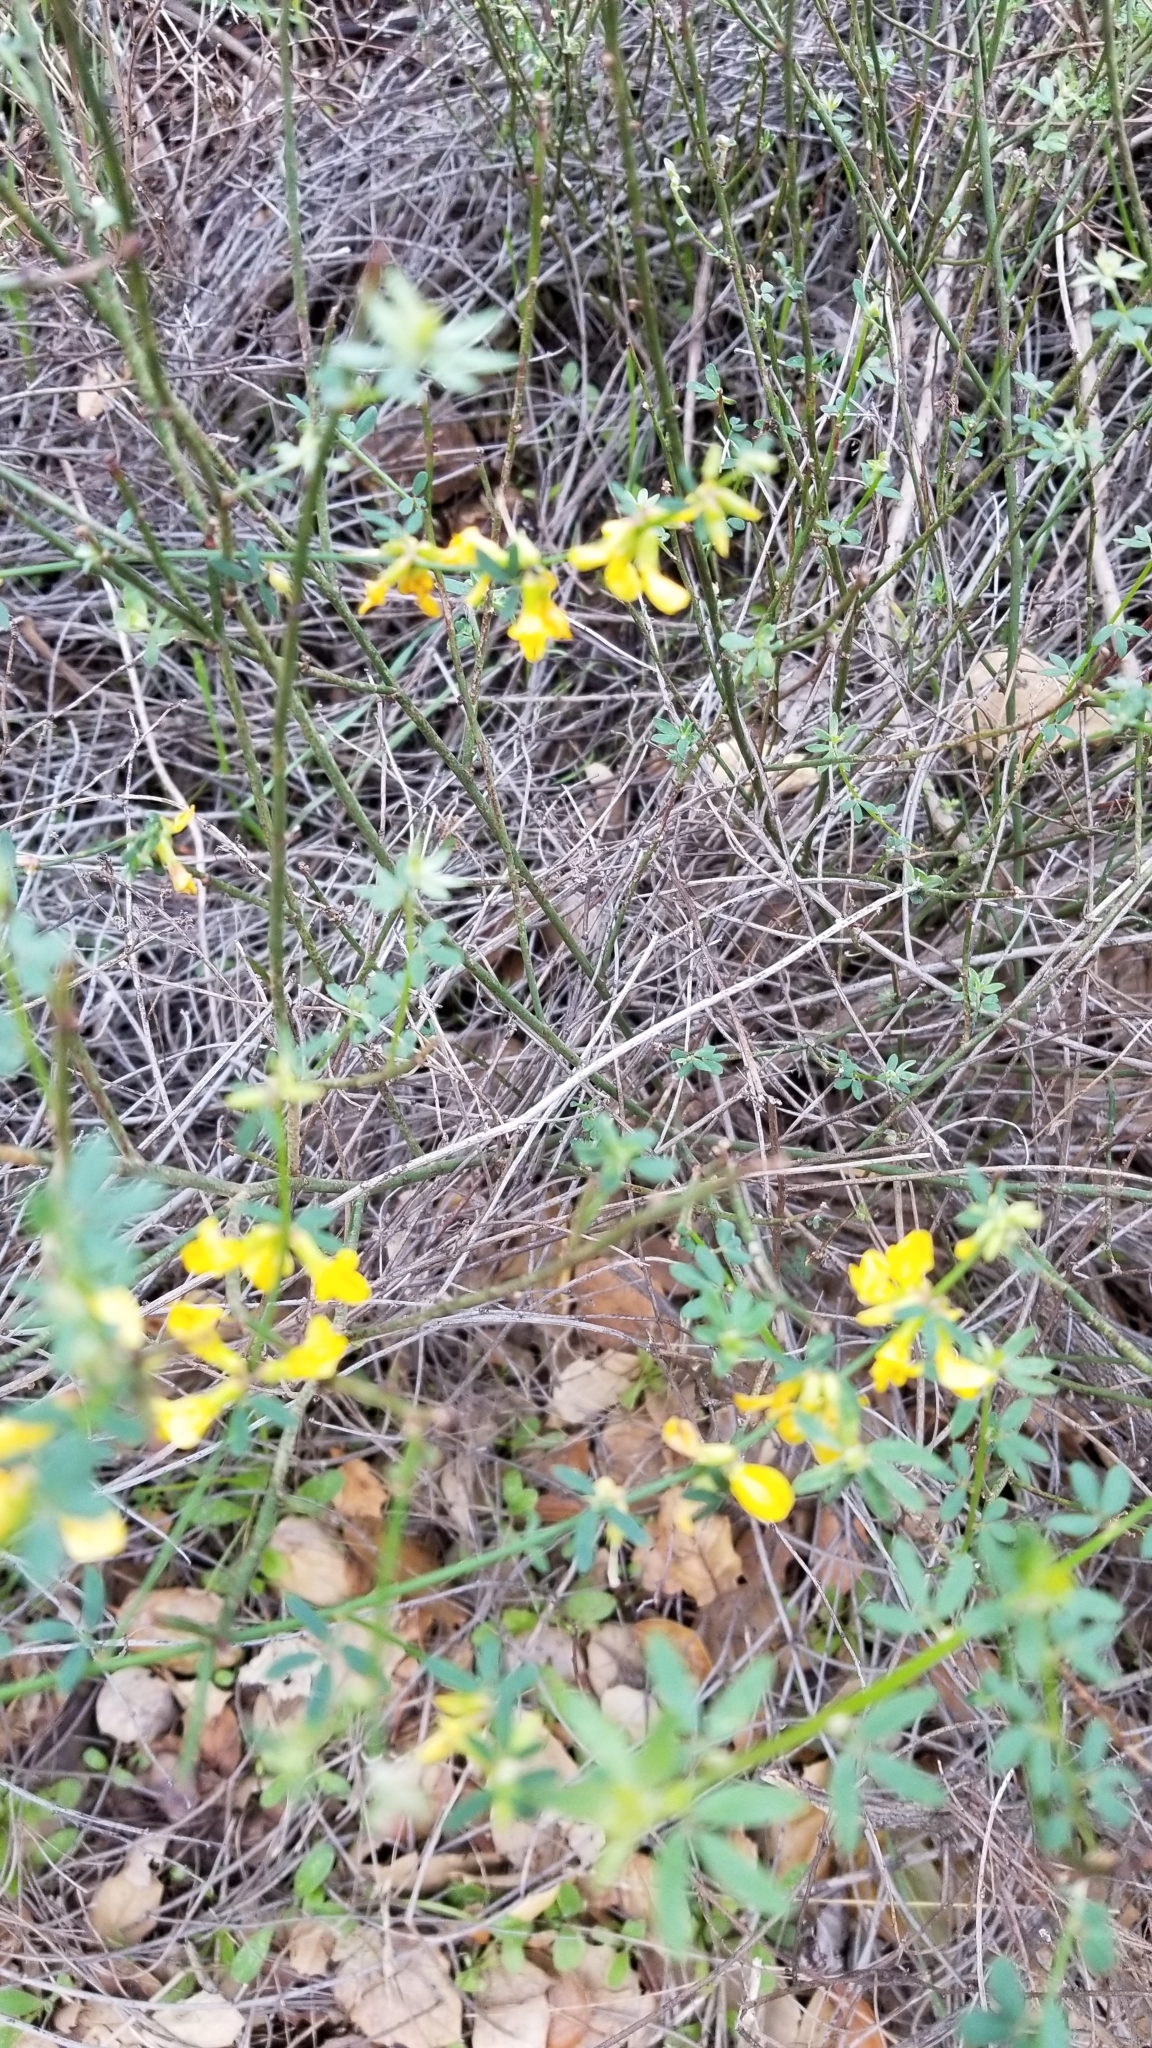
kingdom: Plantae
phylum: Tracheophyta
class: Magnoliopsida
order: Fabales
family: Fabaceae
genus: Acmispon
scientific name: Acmispon glaber
